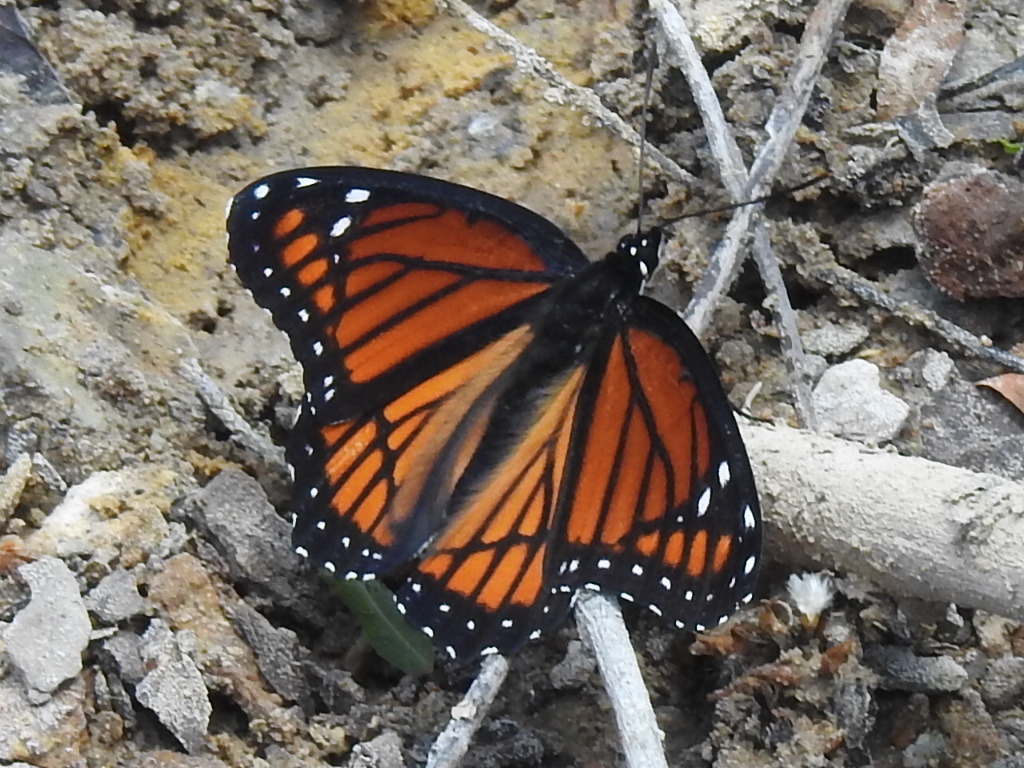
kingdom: Animalia
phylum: Arthropoda
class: Insecta
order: Lepidoptera
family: Nymphalidae
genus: Limenitis
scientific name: Limenitis archippus
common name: Viceroy
